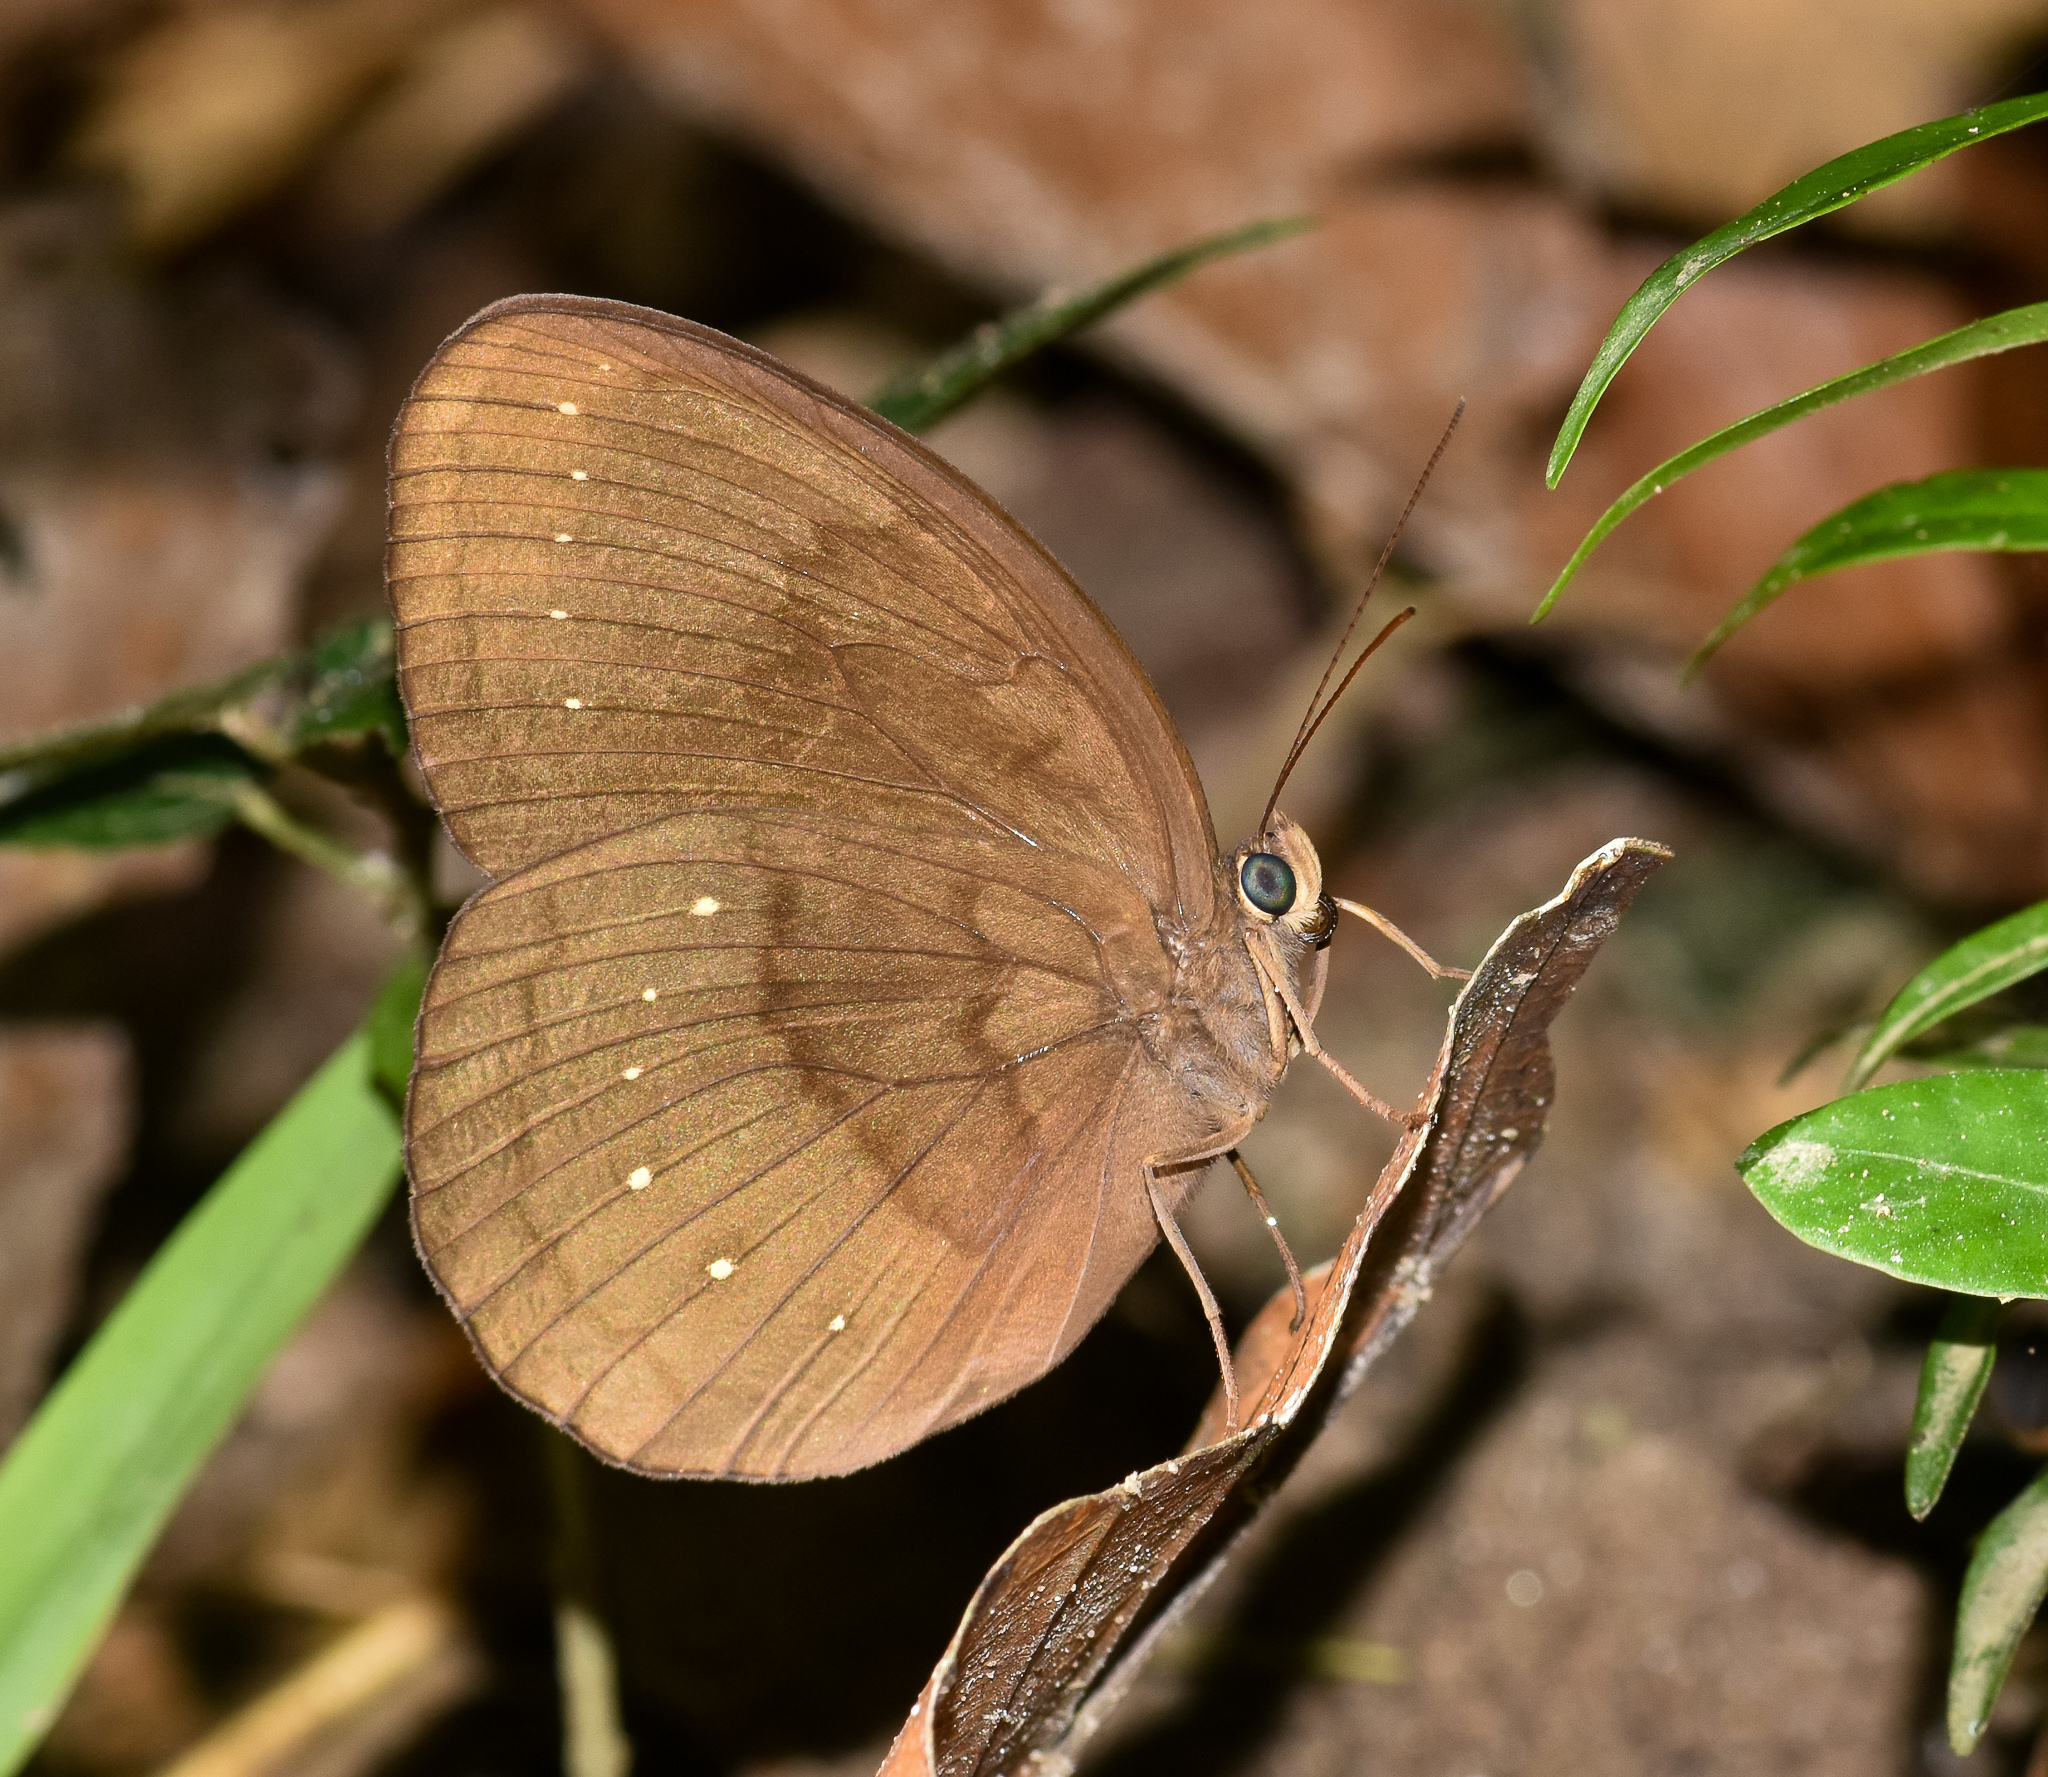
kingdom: Animalia
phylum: Arthropoda
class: Insecta
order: Lepidoptera
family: Nymphalidae
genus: Faunis
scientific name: Faunis canens
